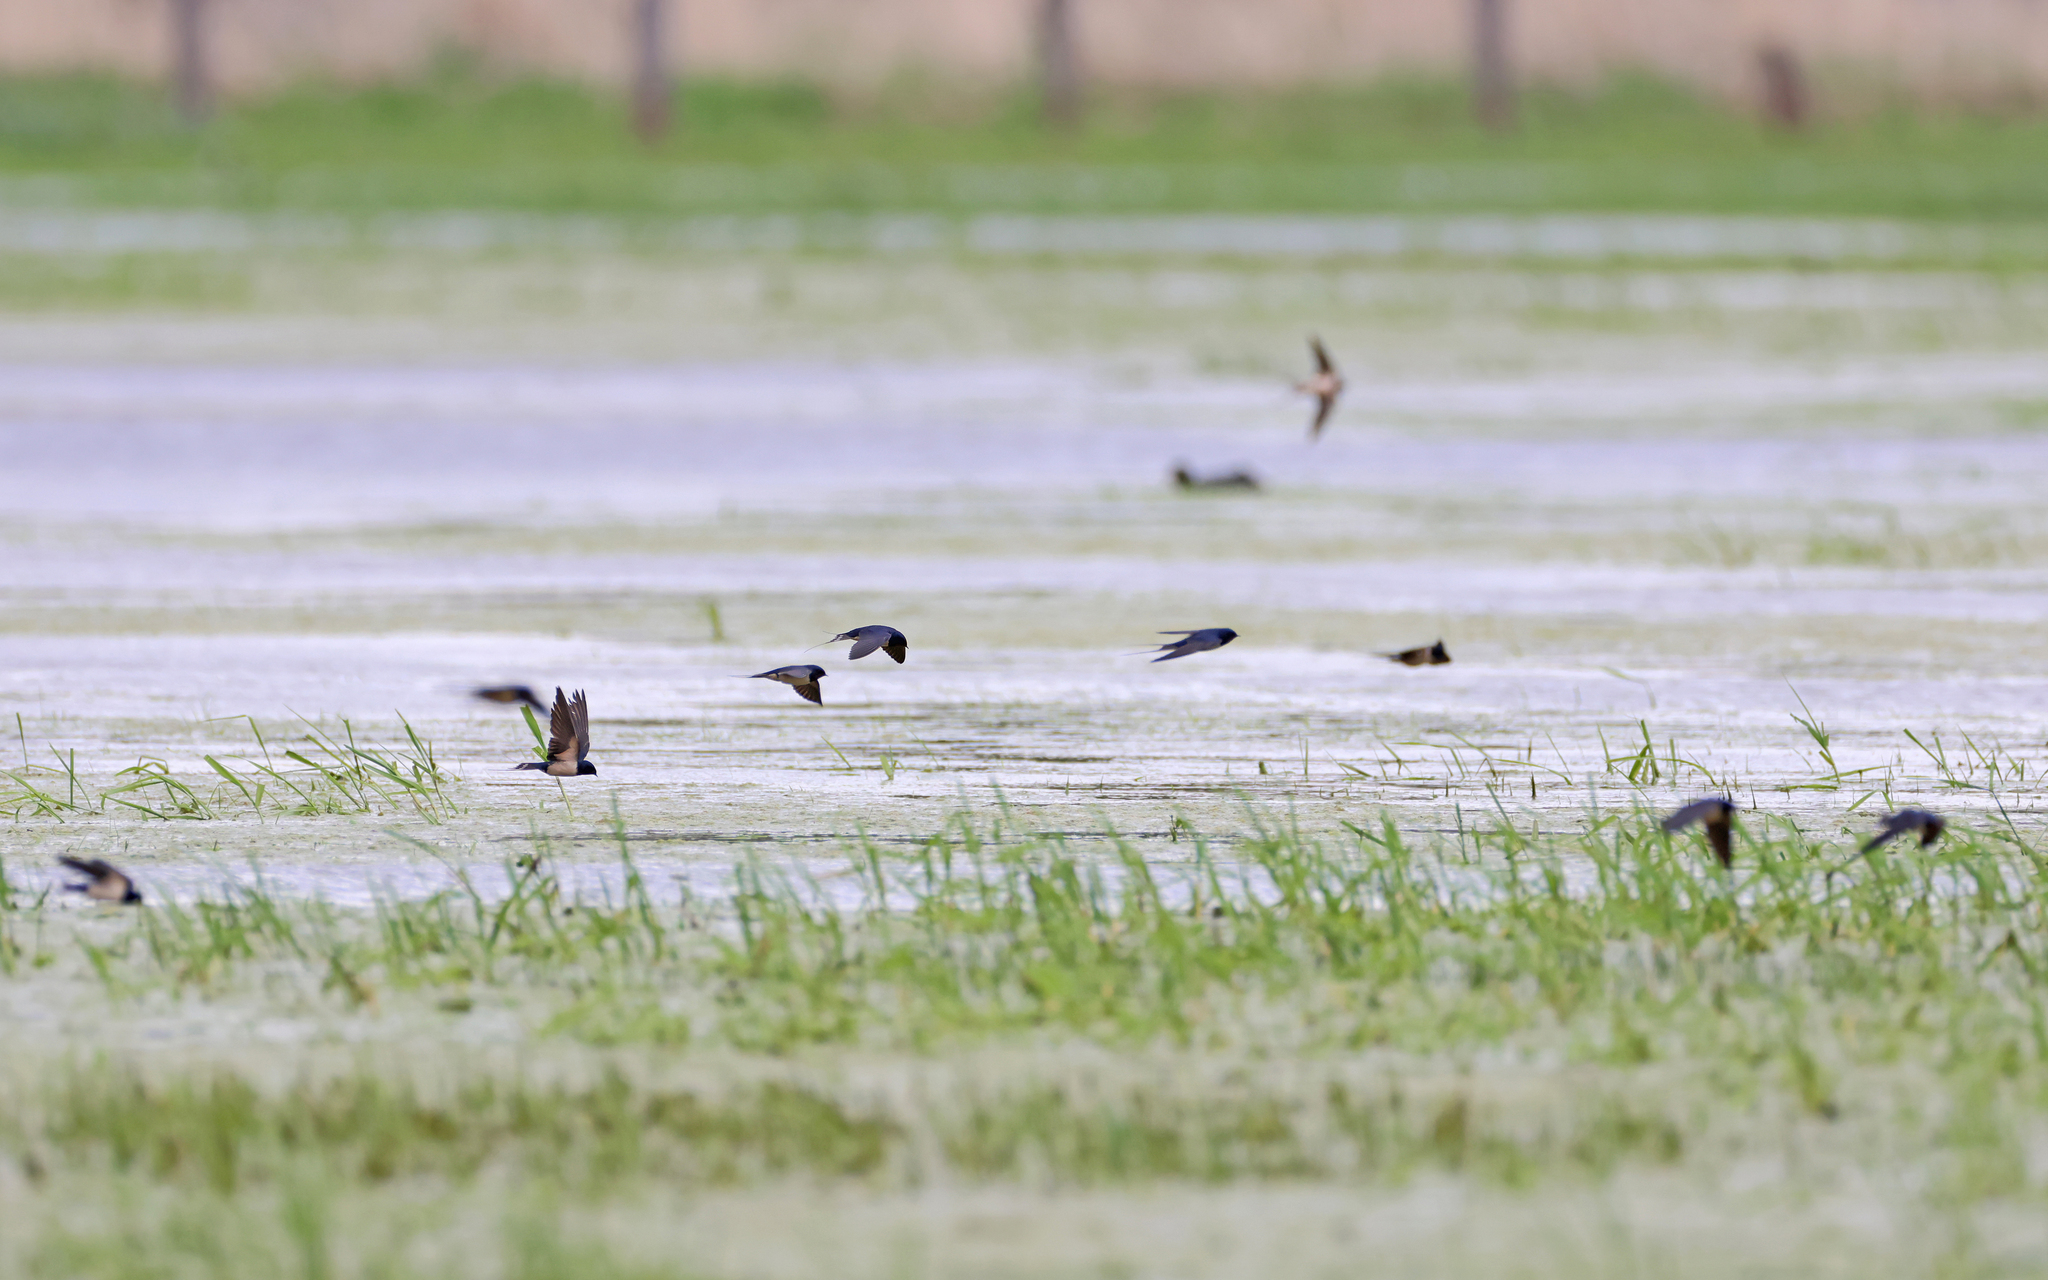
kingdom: Animalia
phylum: Chordata
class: Aves
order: Passeriformes
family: Hirundinidae
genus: Hirundo
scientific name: Hirundo rustica
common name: Barn swallow
